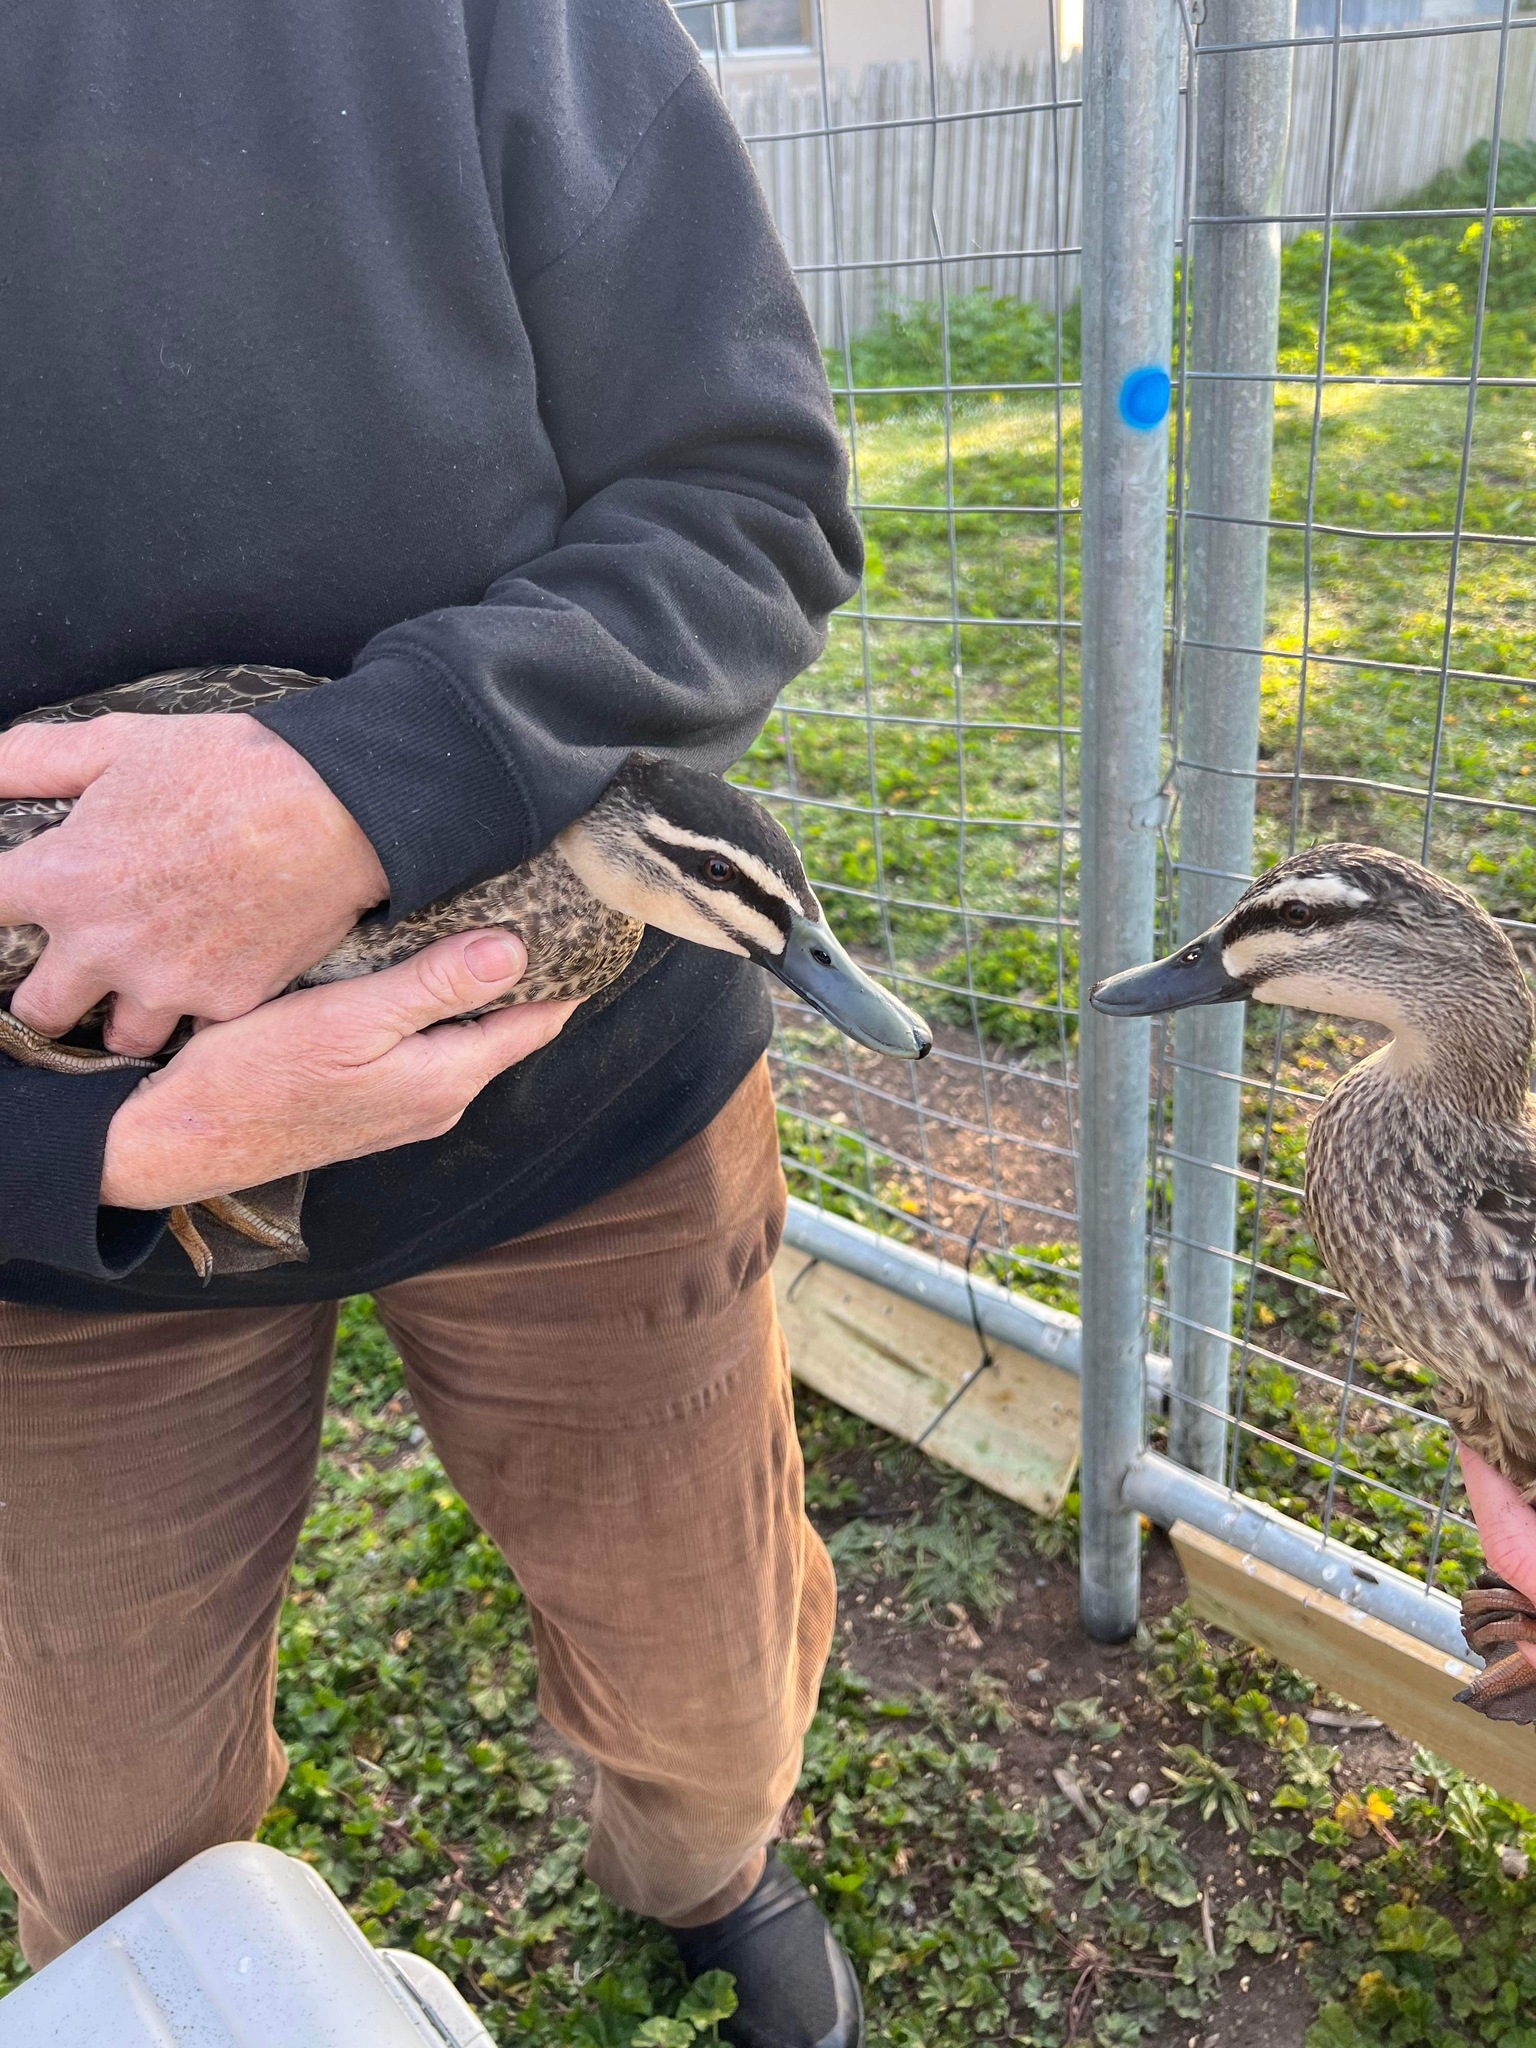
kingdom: Animalia
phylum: Chordata
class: Aves
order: Anseriformes
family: Anatidae
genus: Anas
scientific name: Anas superciliosa
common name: Pacific black duck
